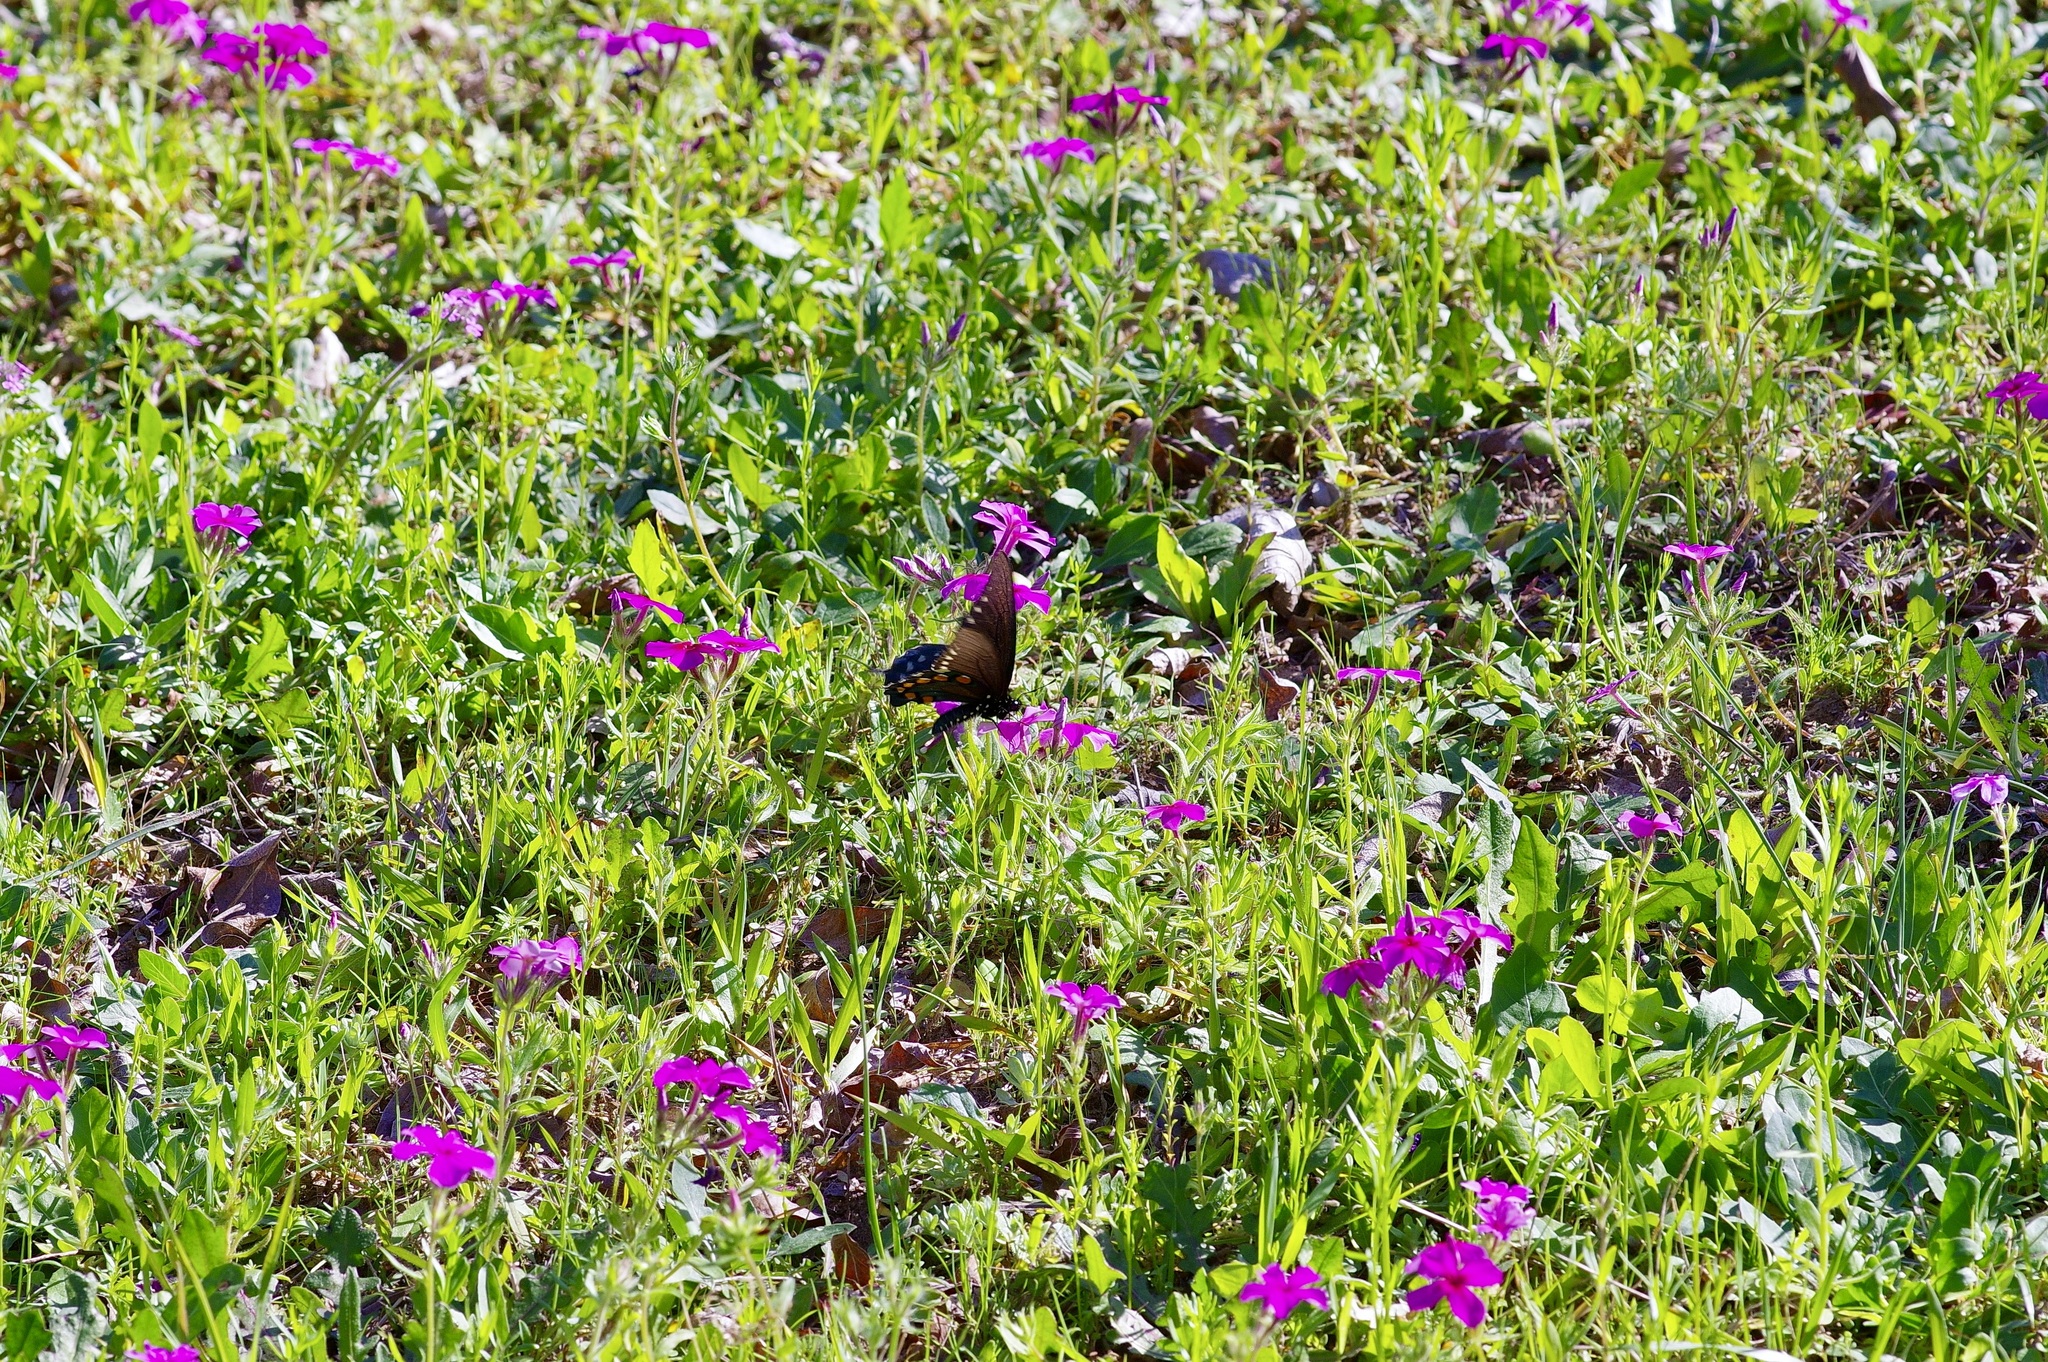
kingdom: Animalia
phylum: Arthropoda
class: Insecta
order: Lepidoptera
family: Papilionidae
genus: Battus
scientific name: Battus philenor
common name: Pipevine swallowtail
